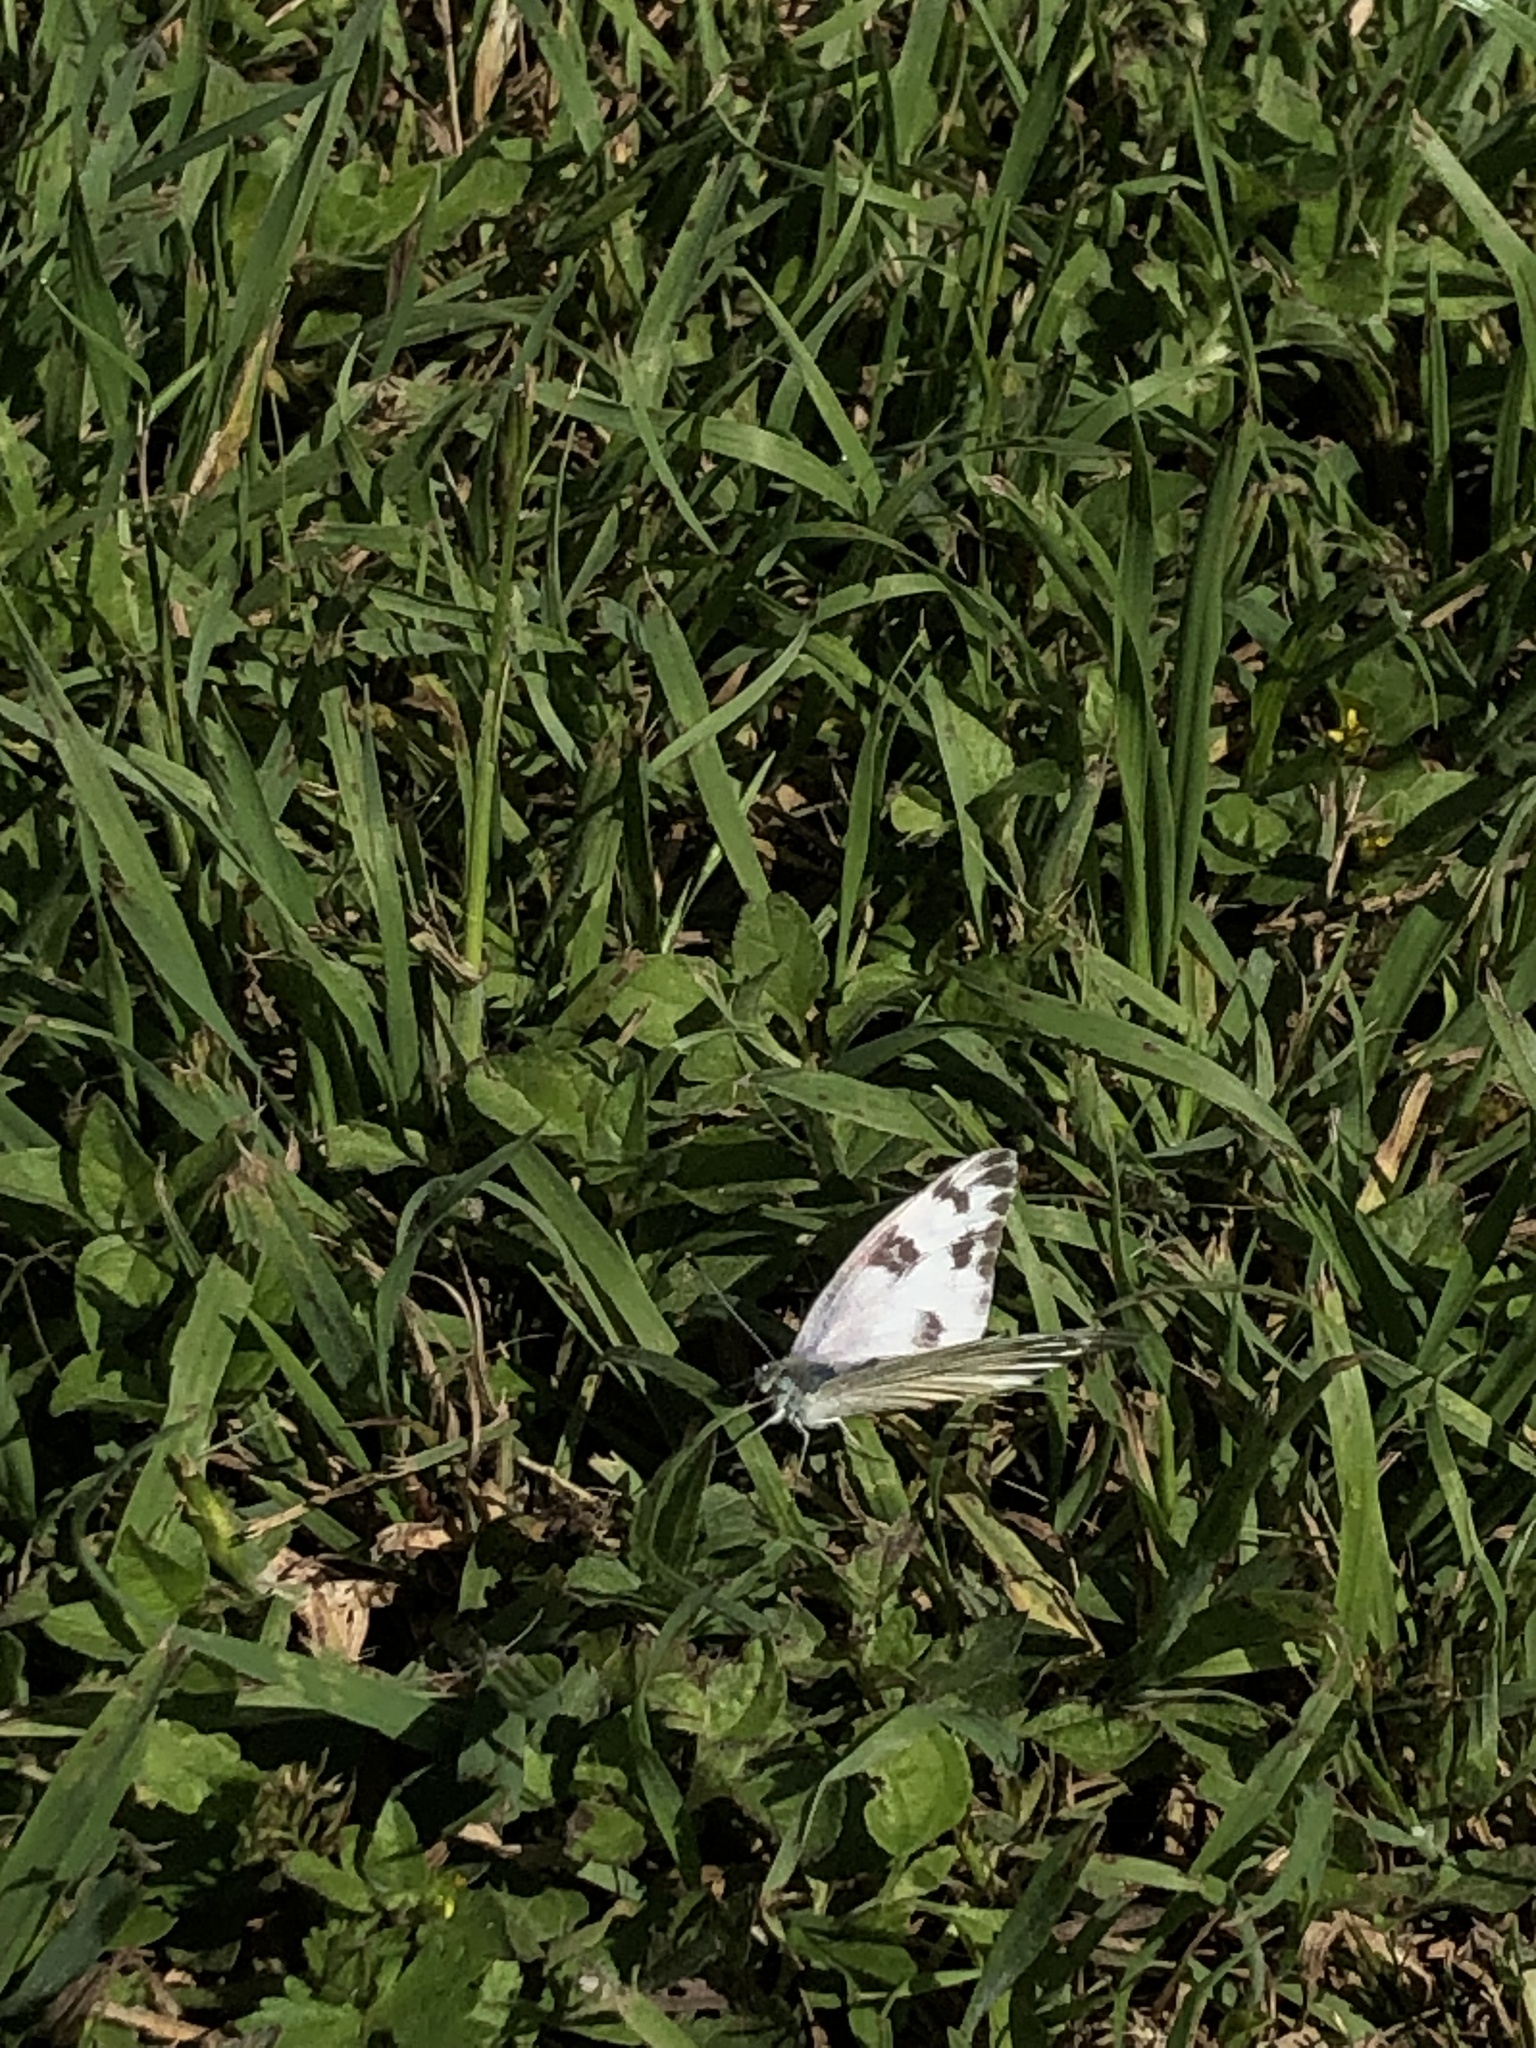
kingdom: Animalia
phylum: Arthropoda
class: Insecta
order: Lepidoptera
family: Pieridae
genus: Pontia
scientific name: Pontia protodice
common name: Checkered white
